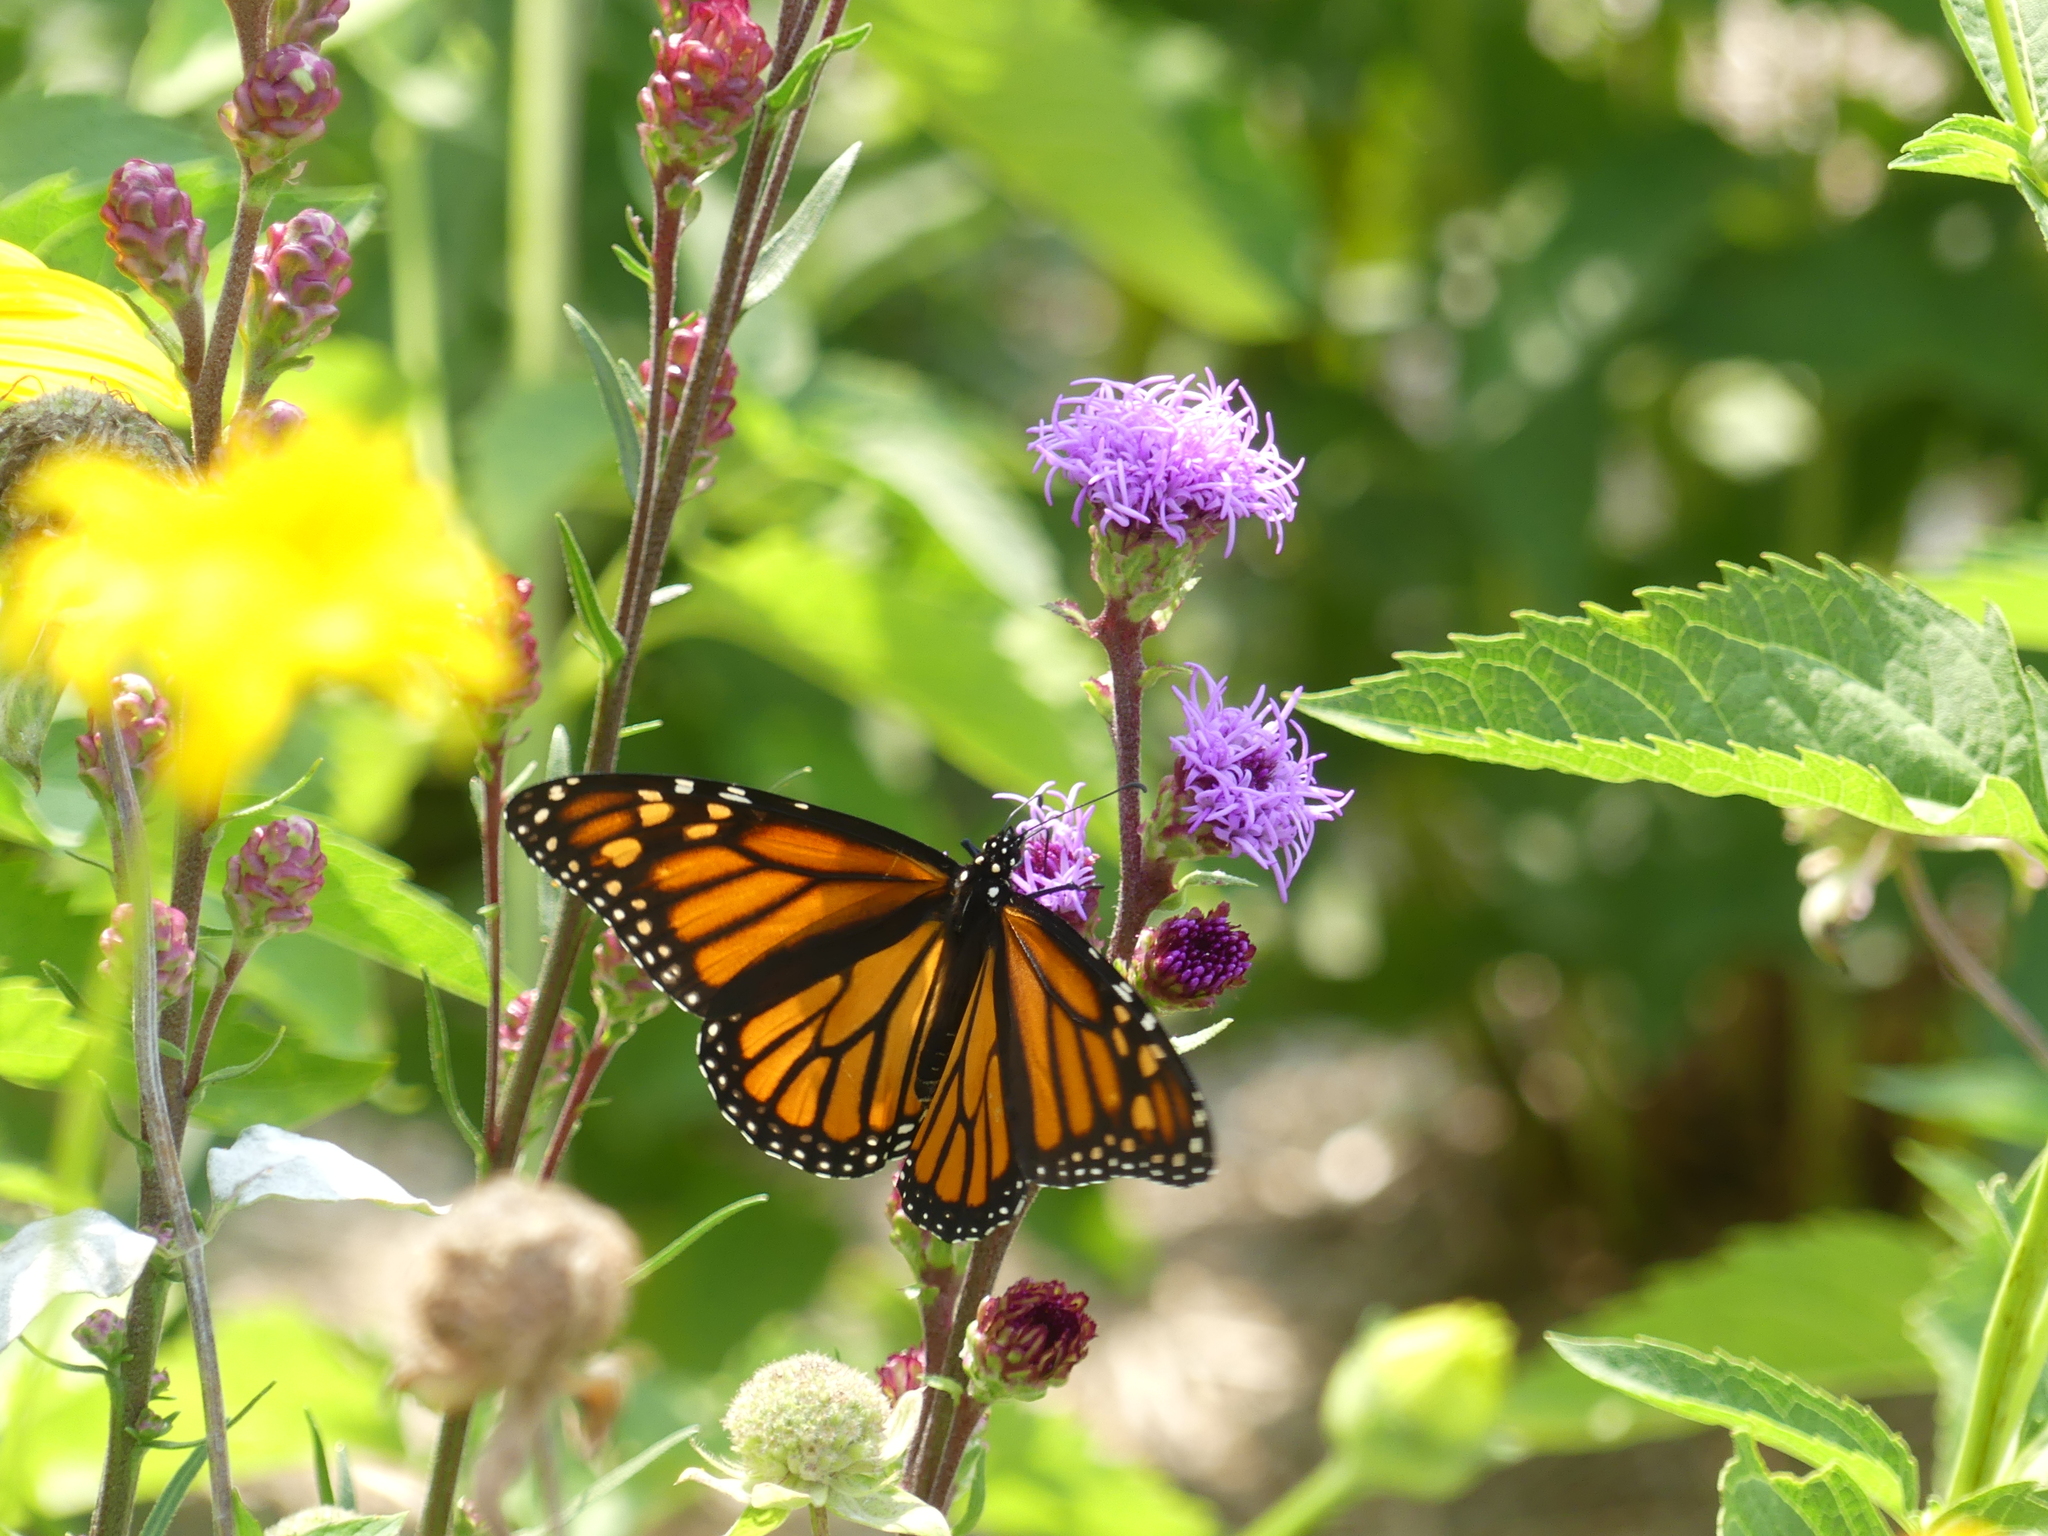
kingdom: Animalia
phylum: Arthropoda
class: Insecta
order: Lepidoptera
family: Nymphalidae
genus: Danaus
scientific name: Danaus plexippus
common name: Monarch
